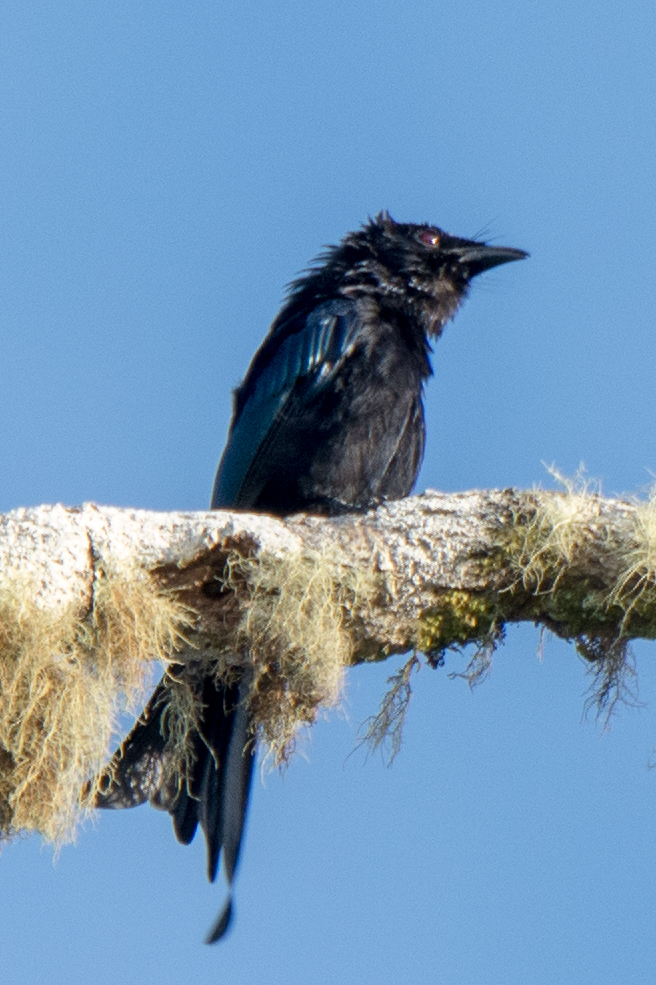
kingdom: Animalia
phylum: Chordata
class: Aves
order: Passeriformes
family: Dicruridae
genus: Dicrurus
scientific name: Dicrurus montanus
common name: Sulawesi drongo
